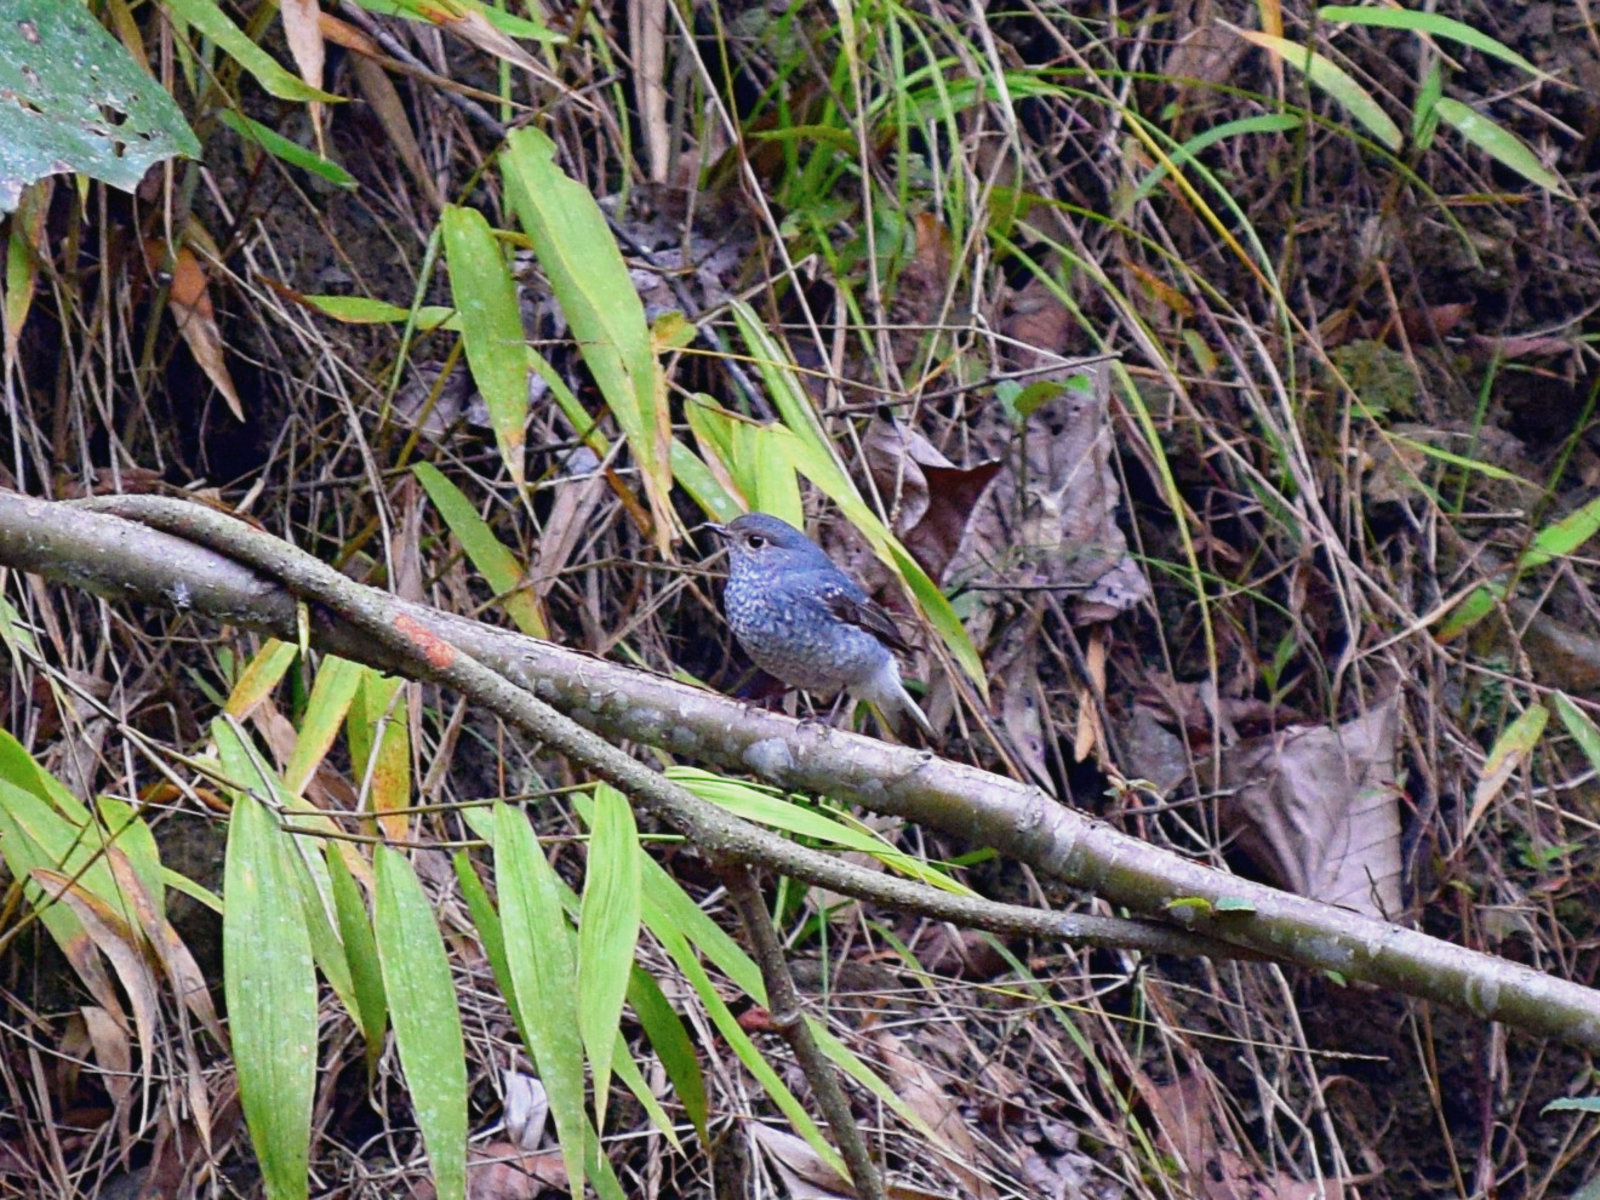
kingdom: Animalia
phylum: Chordata
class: Aves
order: Passeriformes
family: Muscicapidae
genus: Phoenicurus
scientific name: Phoenicurus fuliginosus
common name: Plumbeous water redstart
